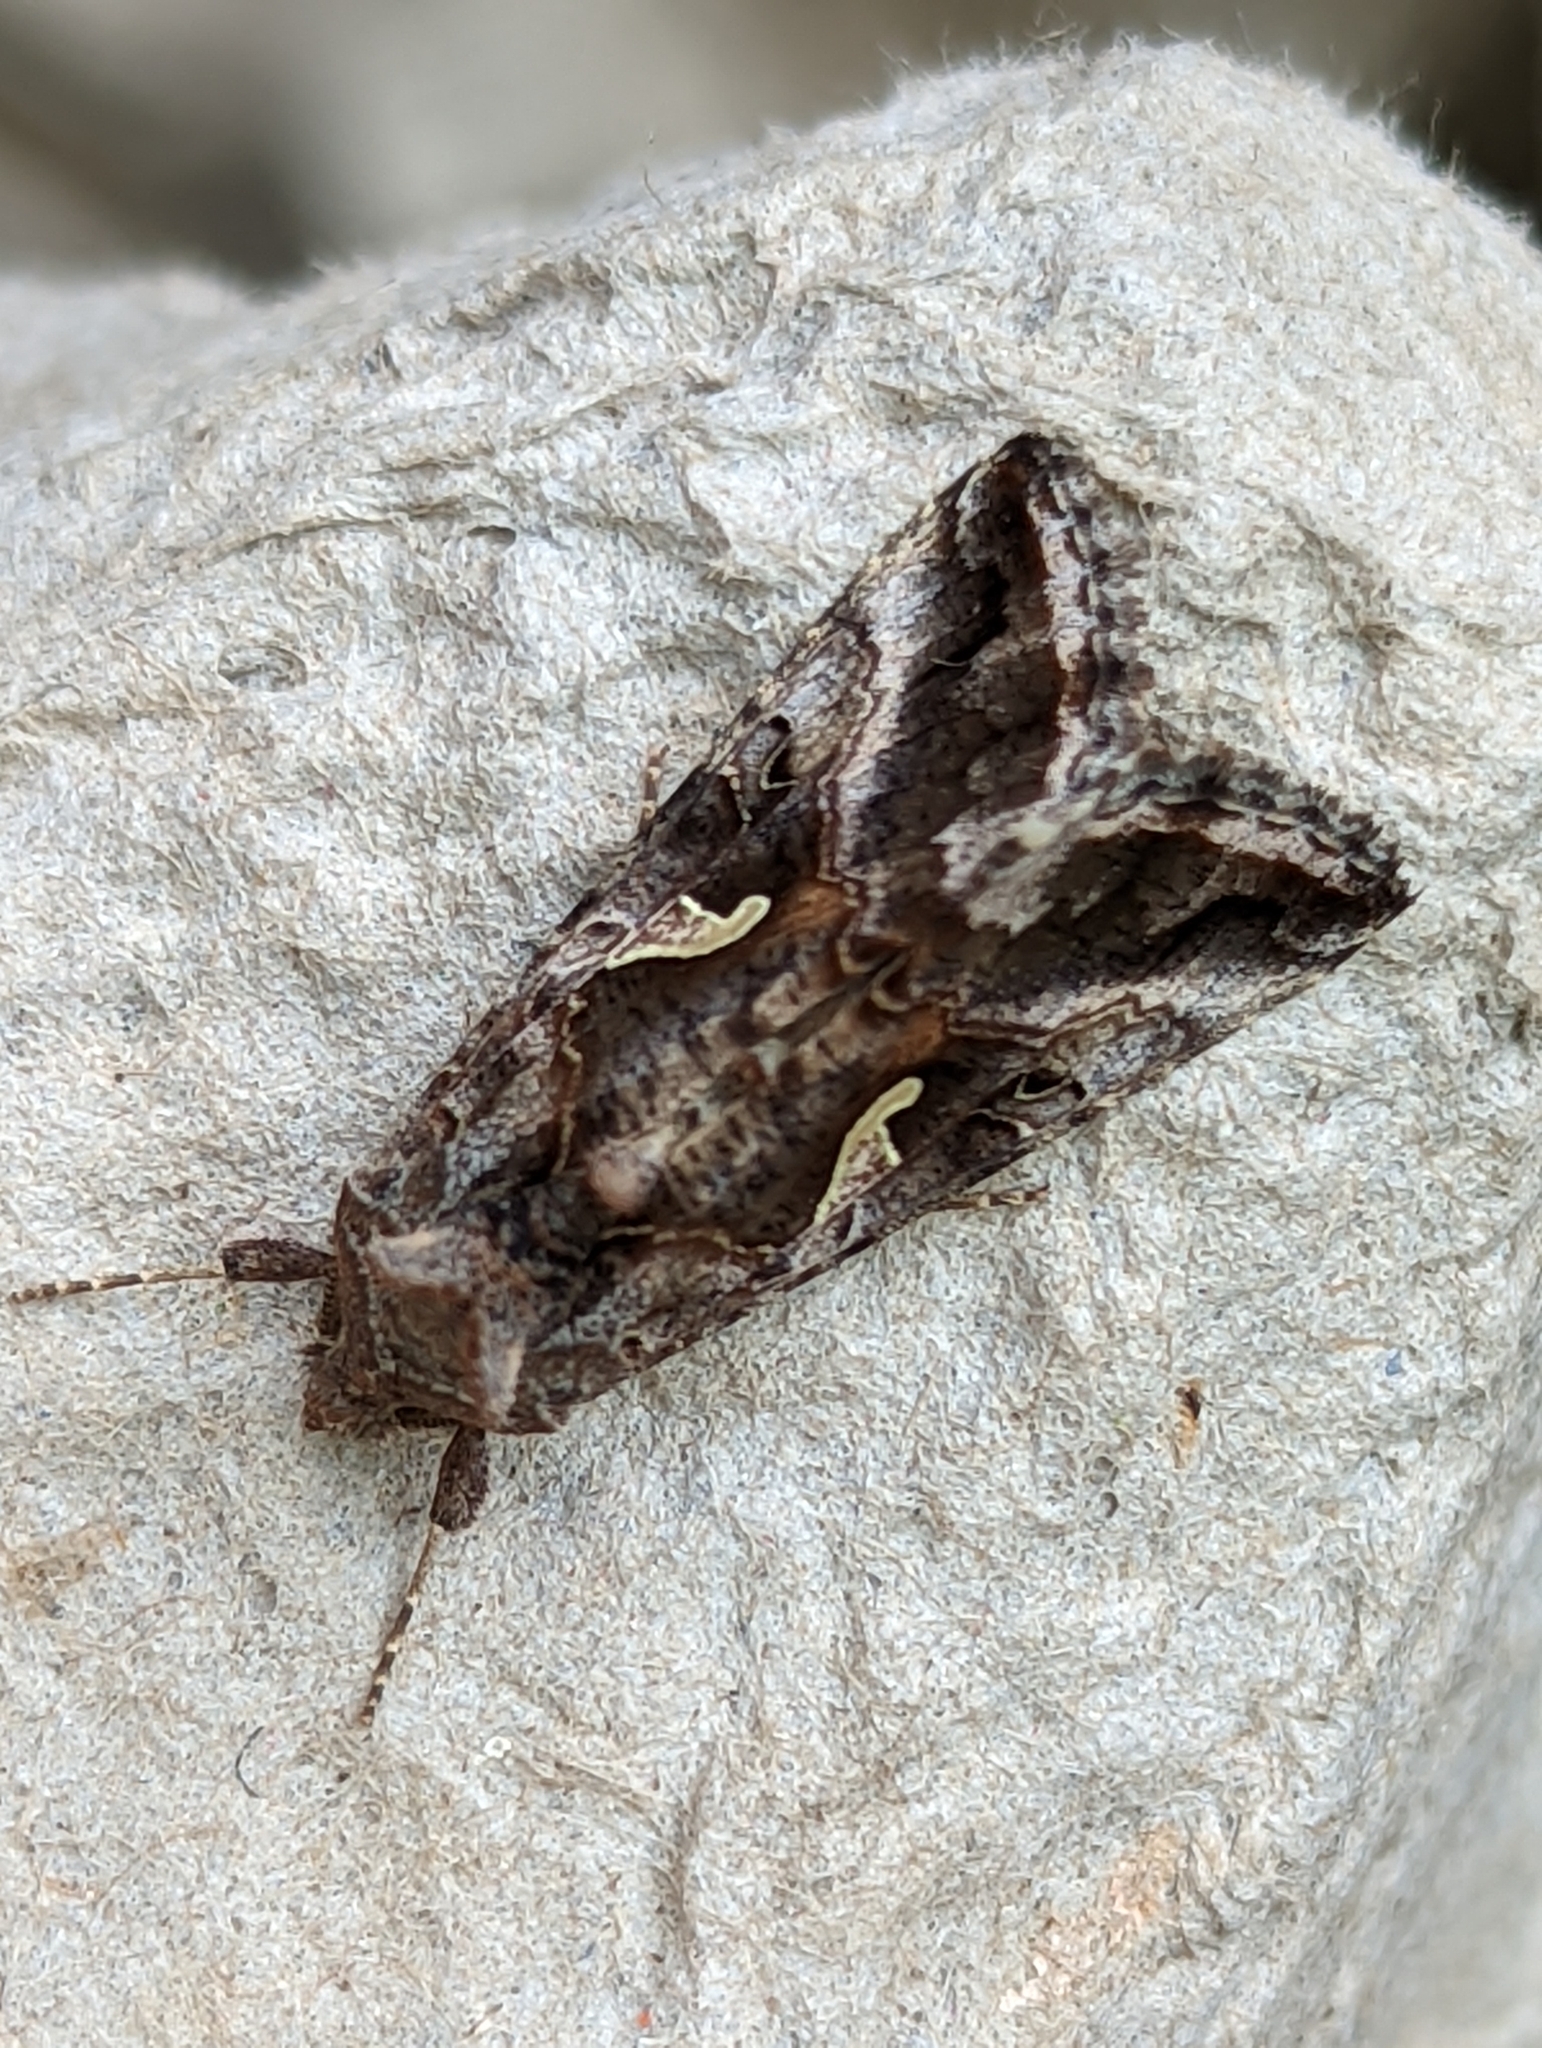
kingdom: Animalia
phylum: Arthropoda
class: Insecta
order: Lepidoptera
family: Noctuidae
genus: Autographa
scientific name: Autographa gamma
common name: Silver y
